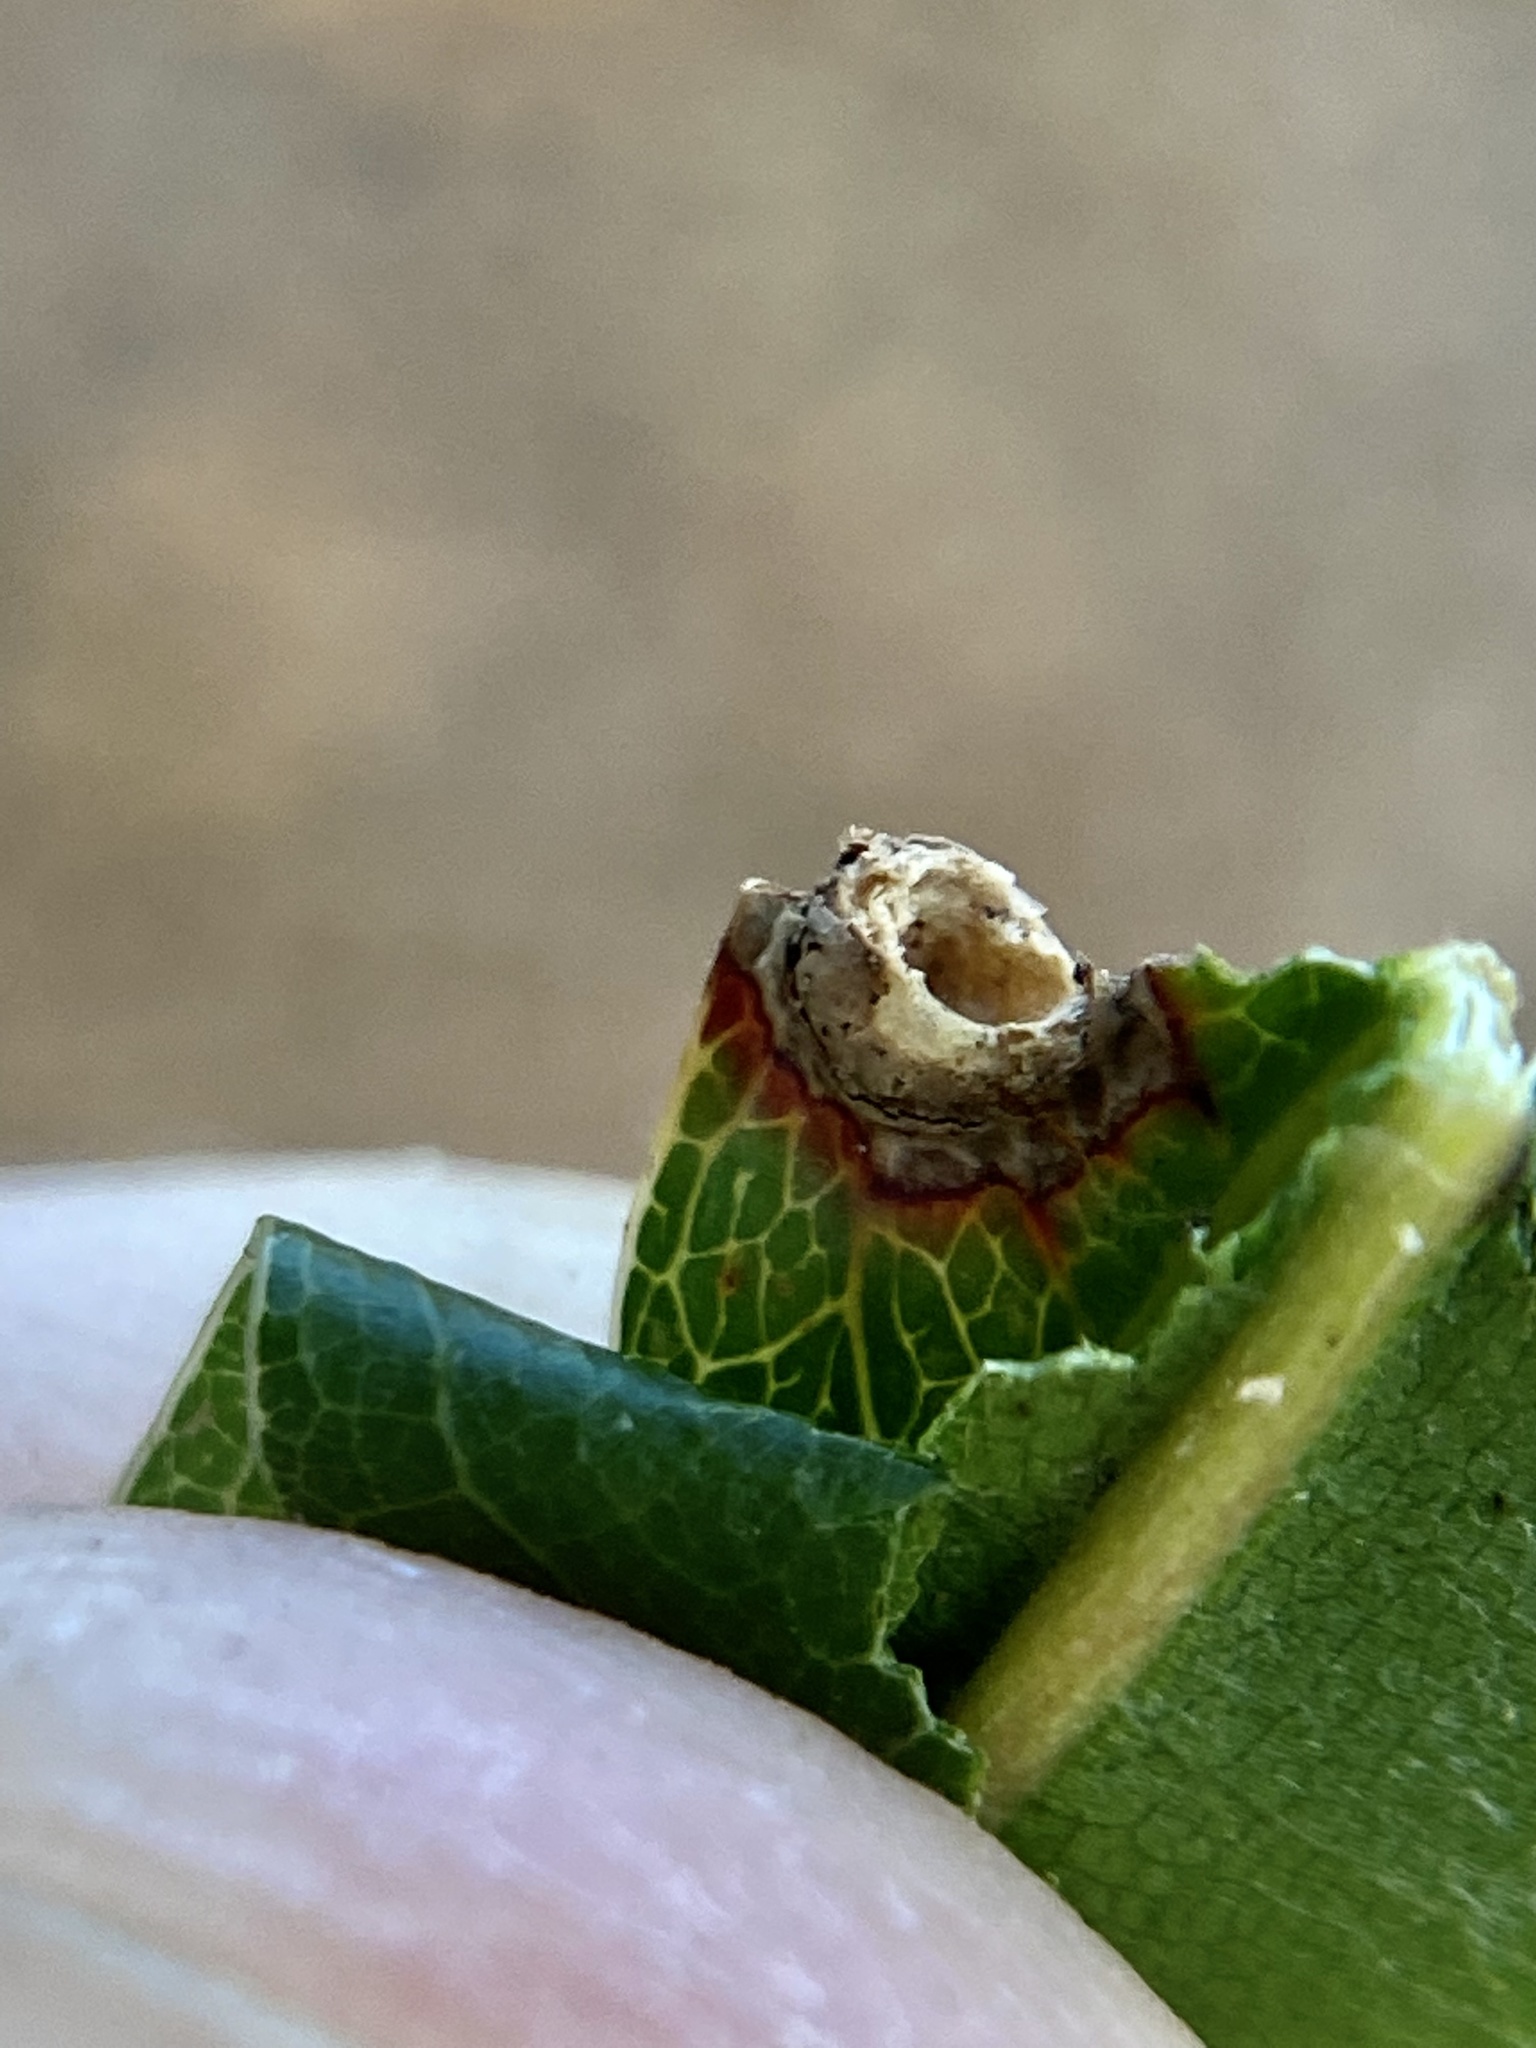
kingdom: Animalia
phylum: Arthropoda
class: Insecta
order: Hymenoptera
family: Cynipidae
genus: Dryocosmus
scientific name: Dryocosmus quercuspalustris
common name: Succulent oak gall wasp
